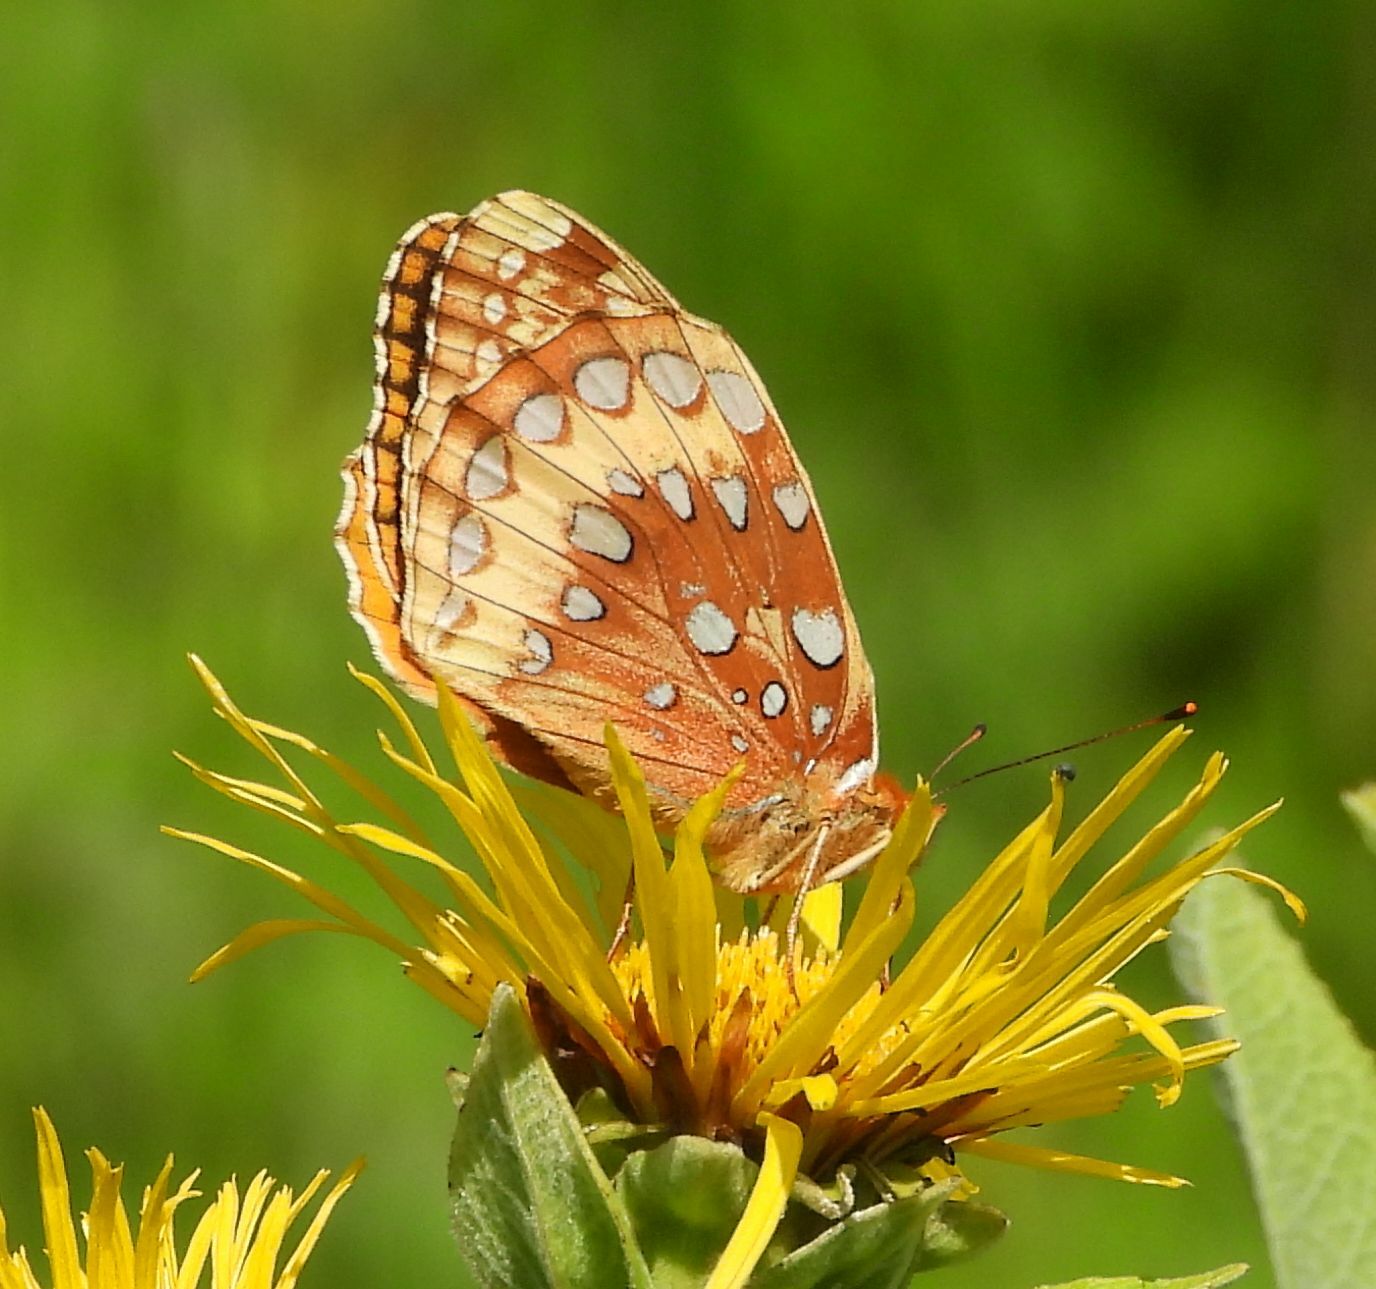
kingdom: Animalia
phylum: Arthropoda
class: Insecta
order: Lepidoptera
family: Nymphalidae
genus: Speyeria
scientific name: Speyeria cybele
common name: Great spangled fritillary
